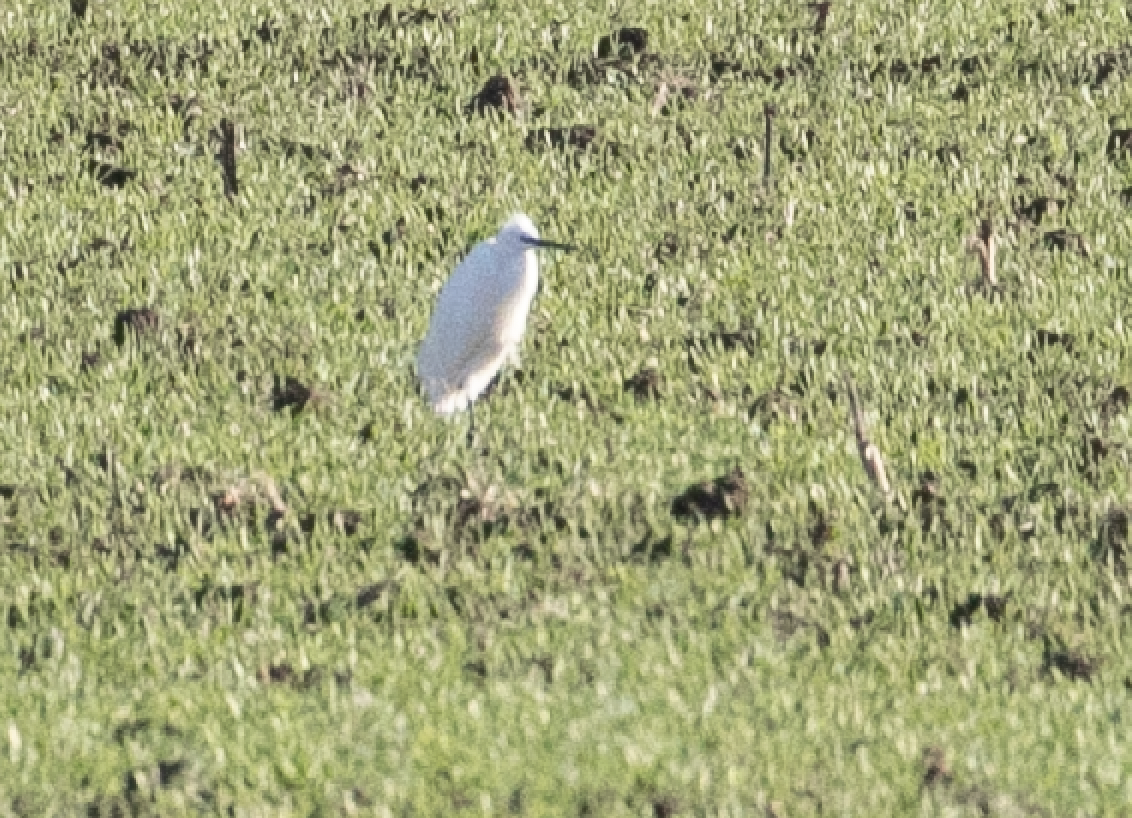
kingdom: Animalia
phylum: Chordata
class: Aves
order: Pelecaniformes
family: Ardeidae
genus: Egretta
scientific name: Egretta garzetta
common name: Little egret
